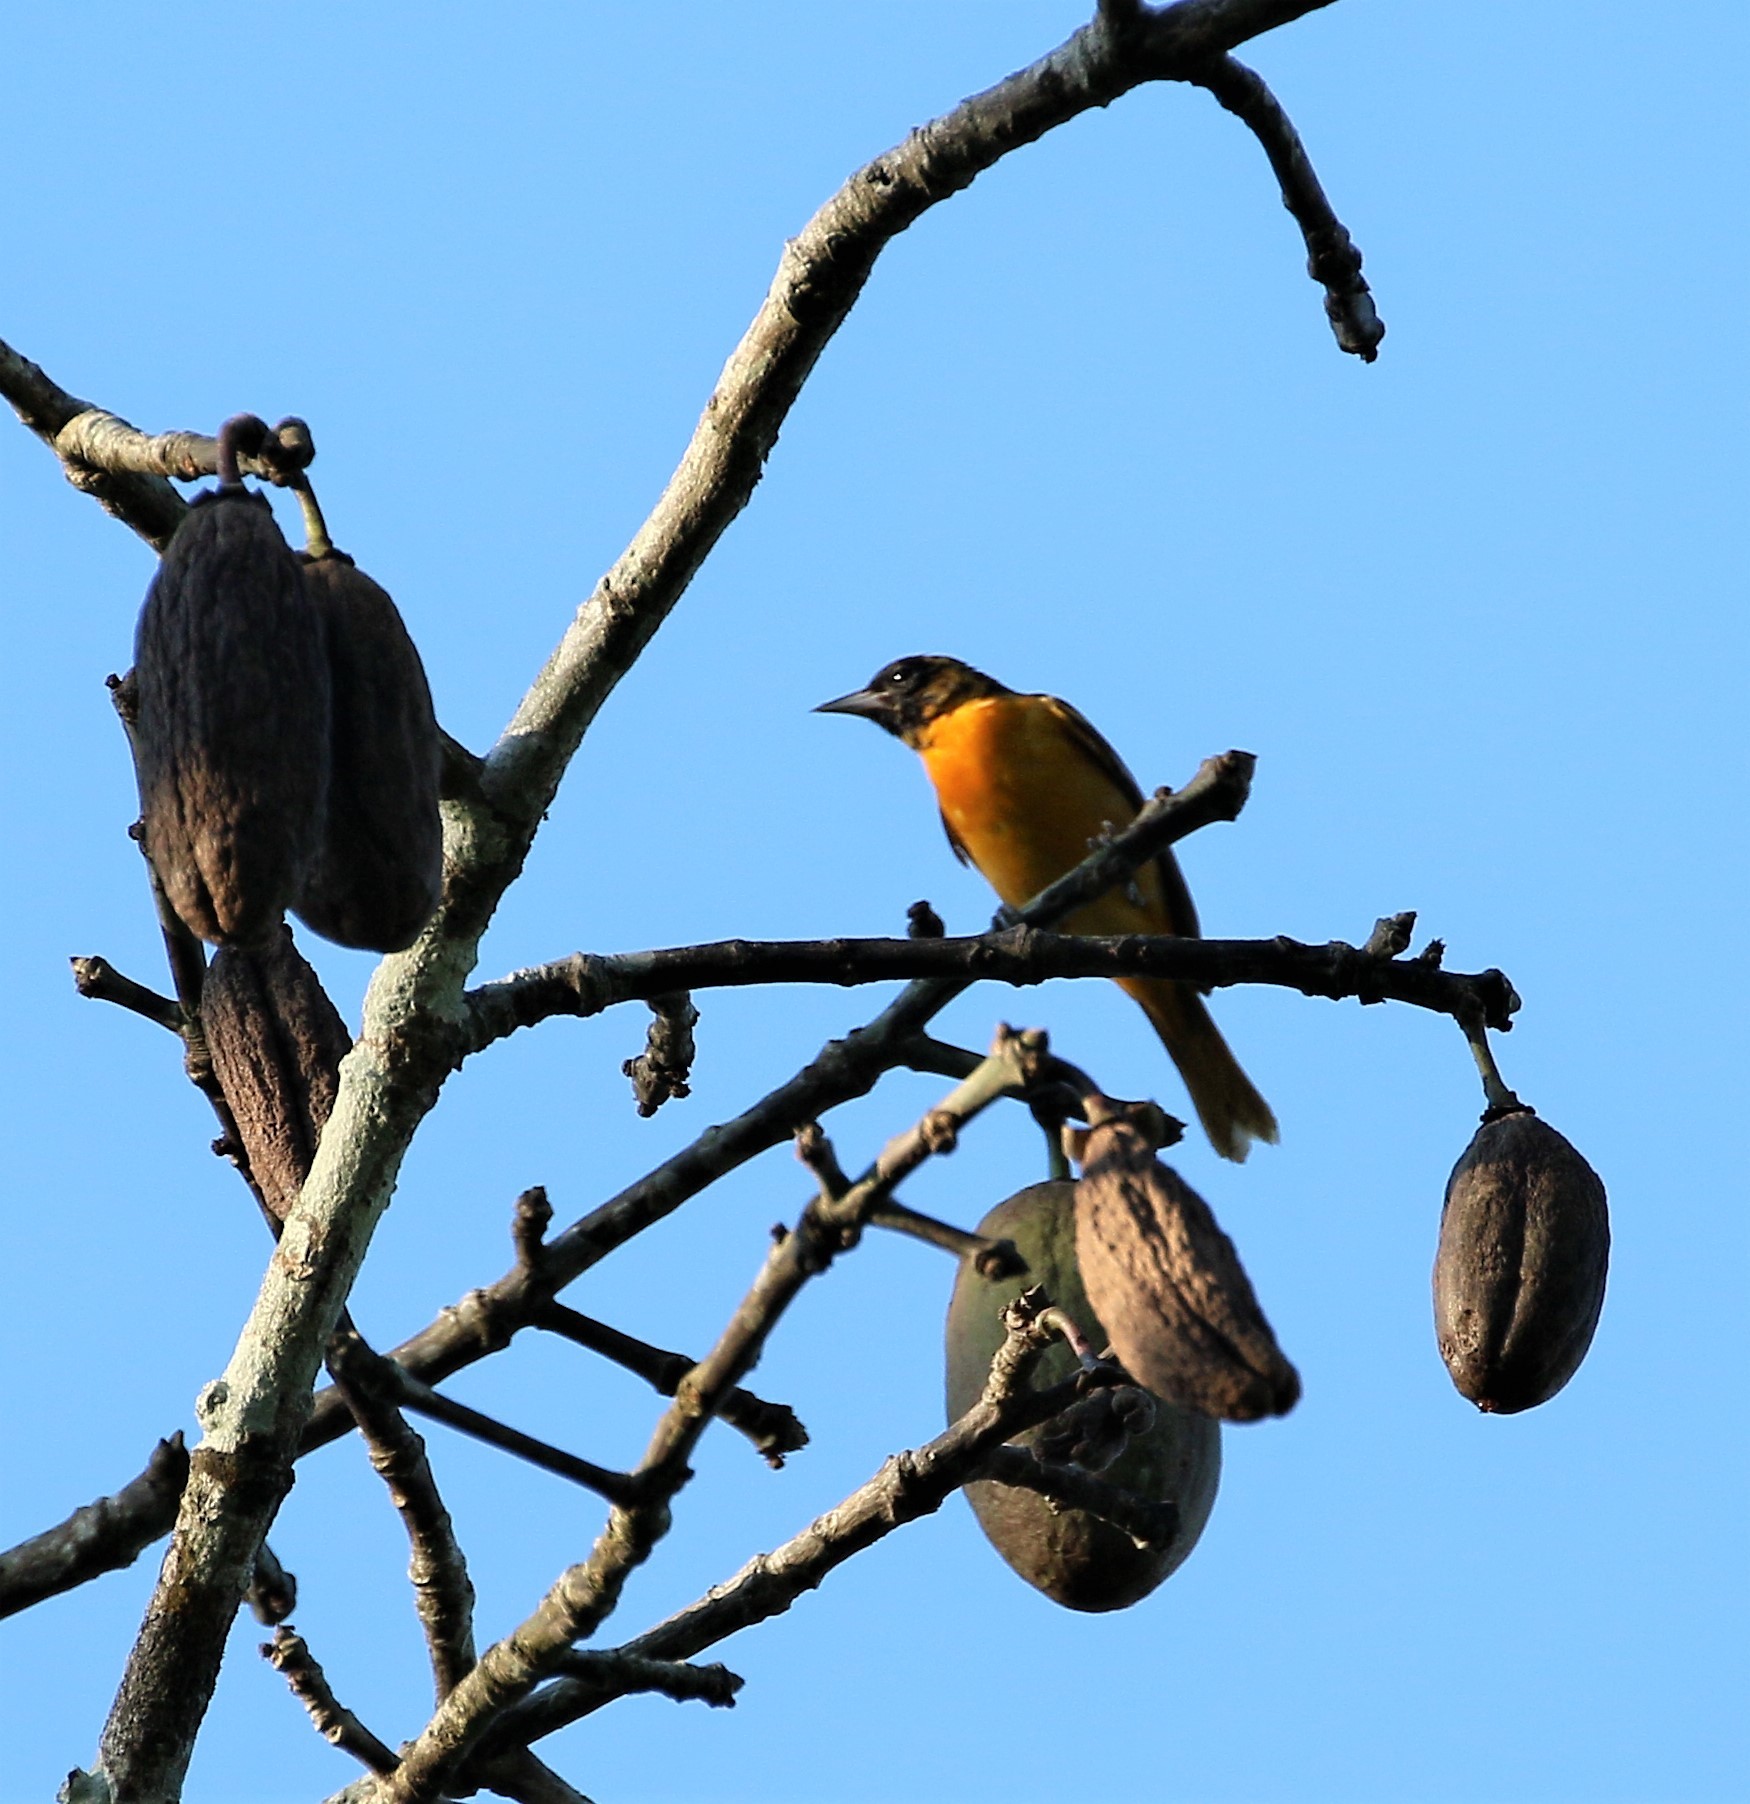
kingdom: Animalia
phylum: Chordata
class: Aves
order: Passeriformes
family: Icteridae
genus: Icterus
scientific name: Icterus galbula
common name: Baltimore oriole
